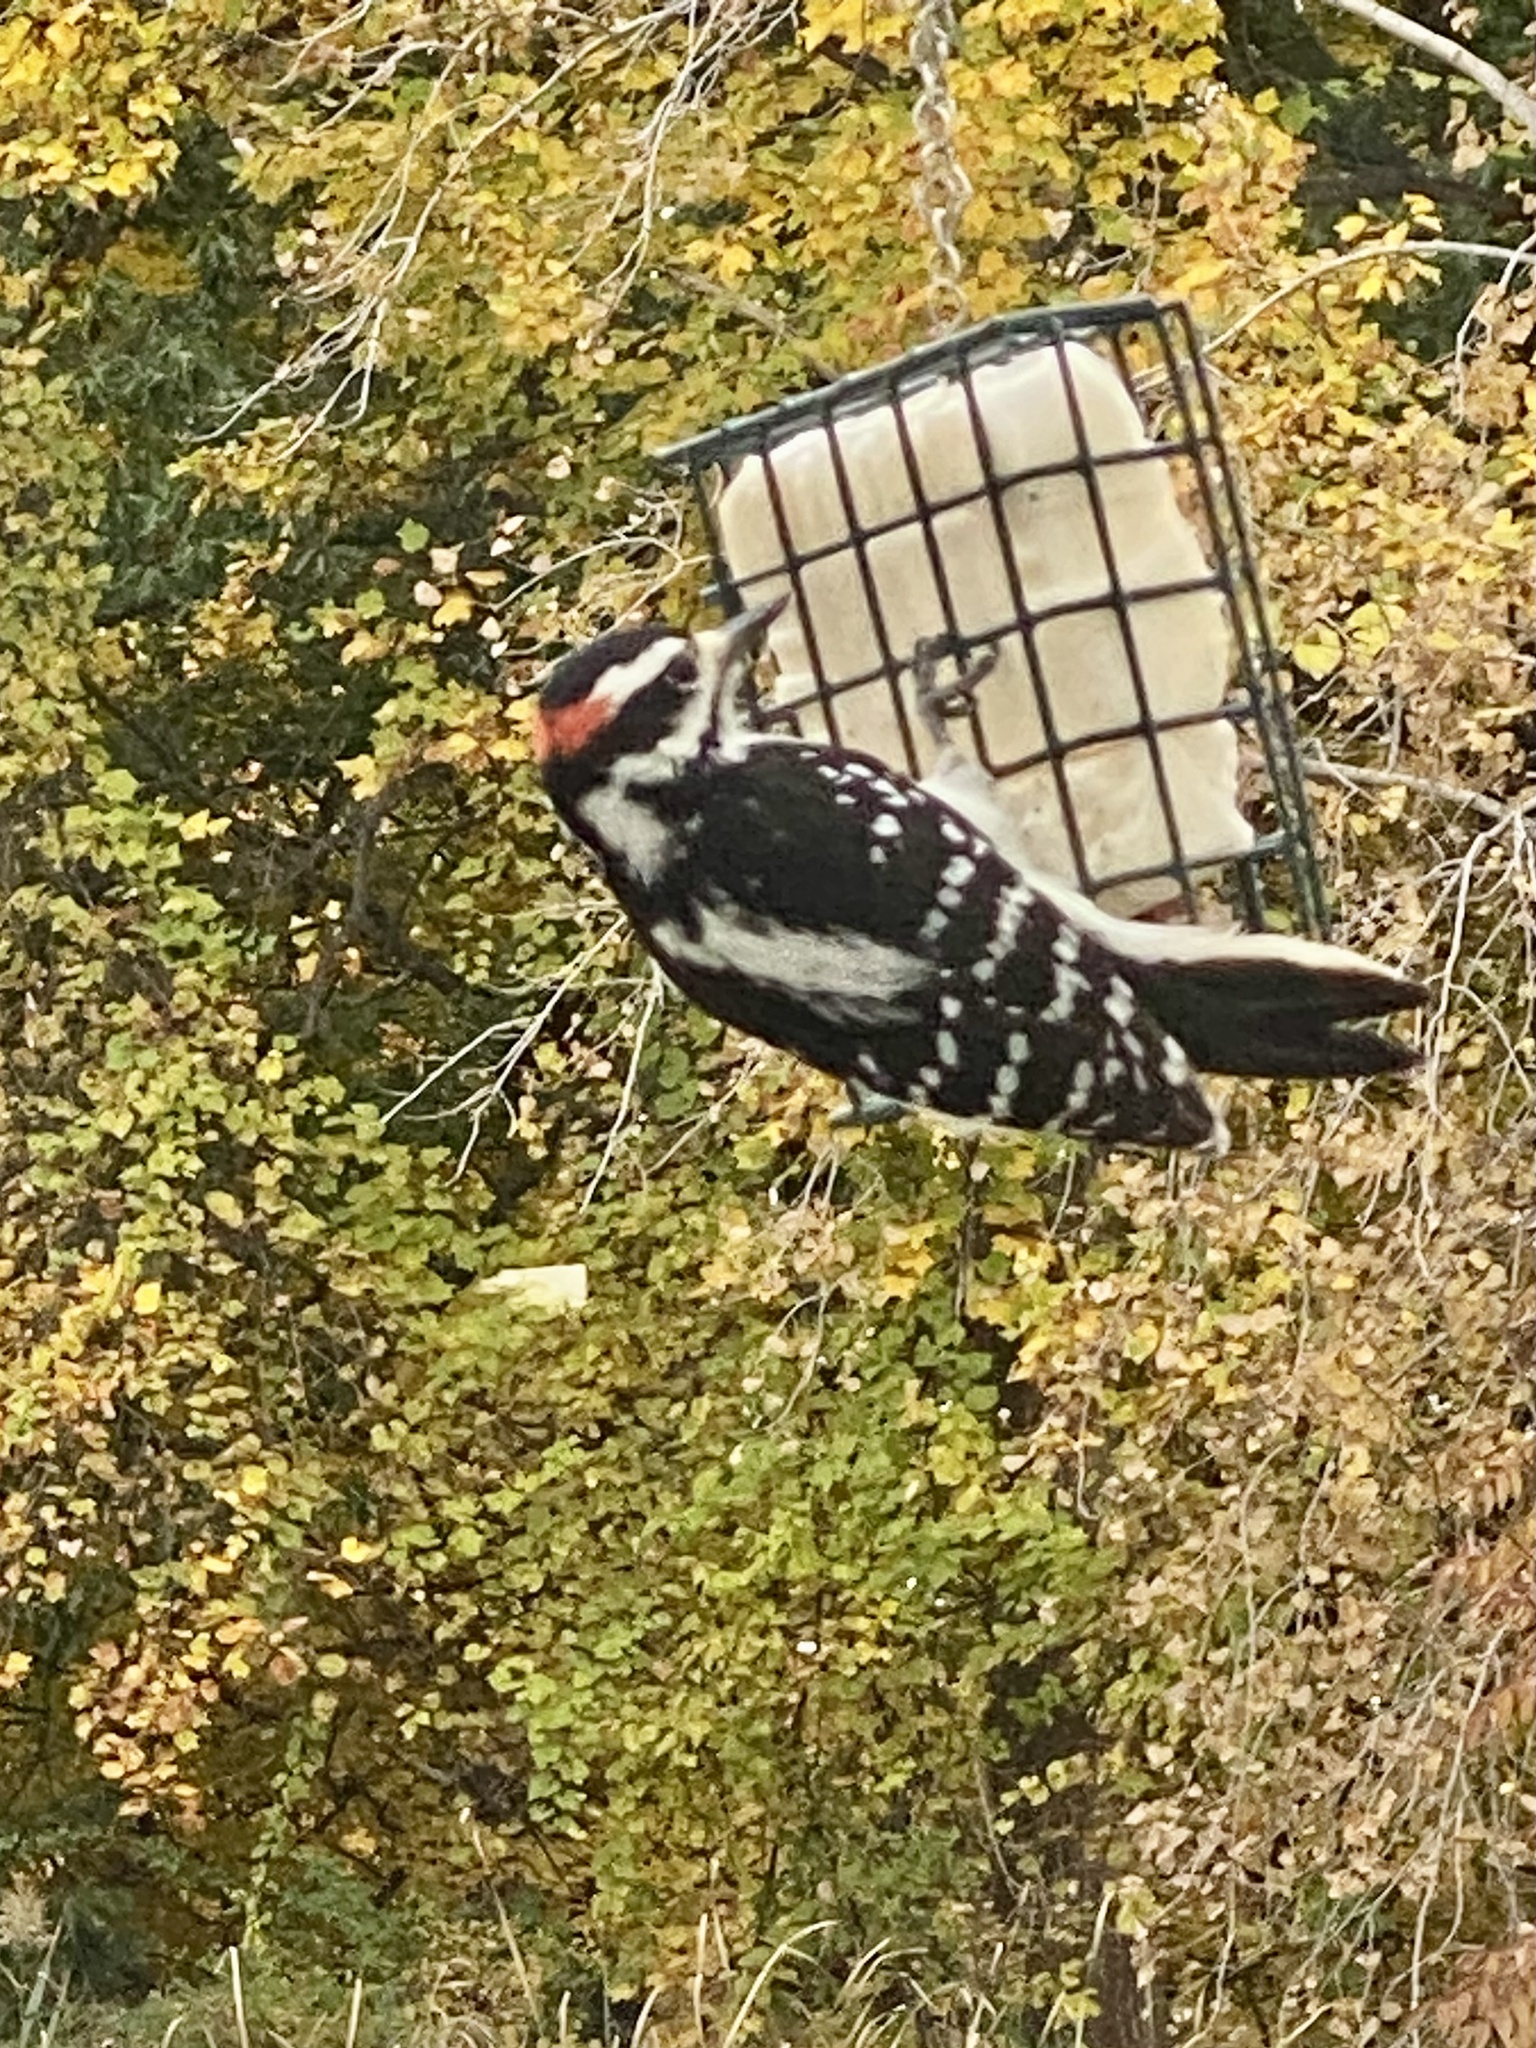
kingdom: Animalia
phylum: Chordata
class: Aves
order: Piciformes
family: Picidae
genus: Leuconotopicus
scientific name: Leuconotopicus villosus
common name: Hairy woodpecker
